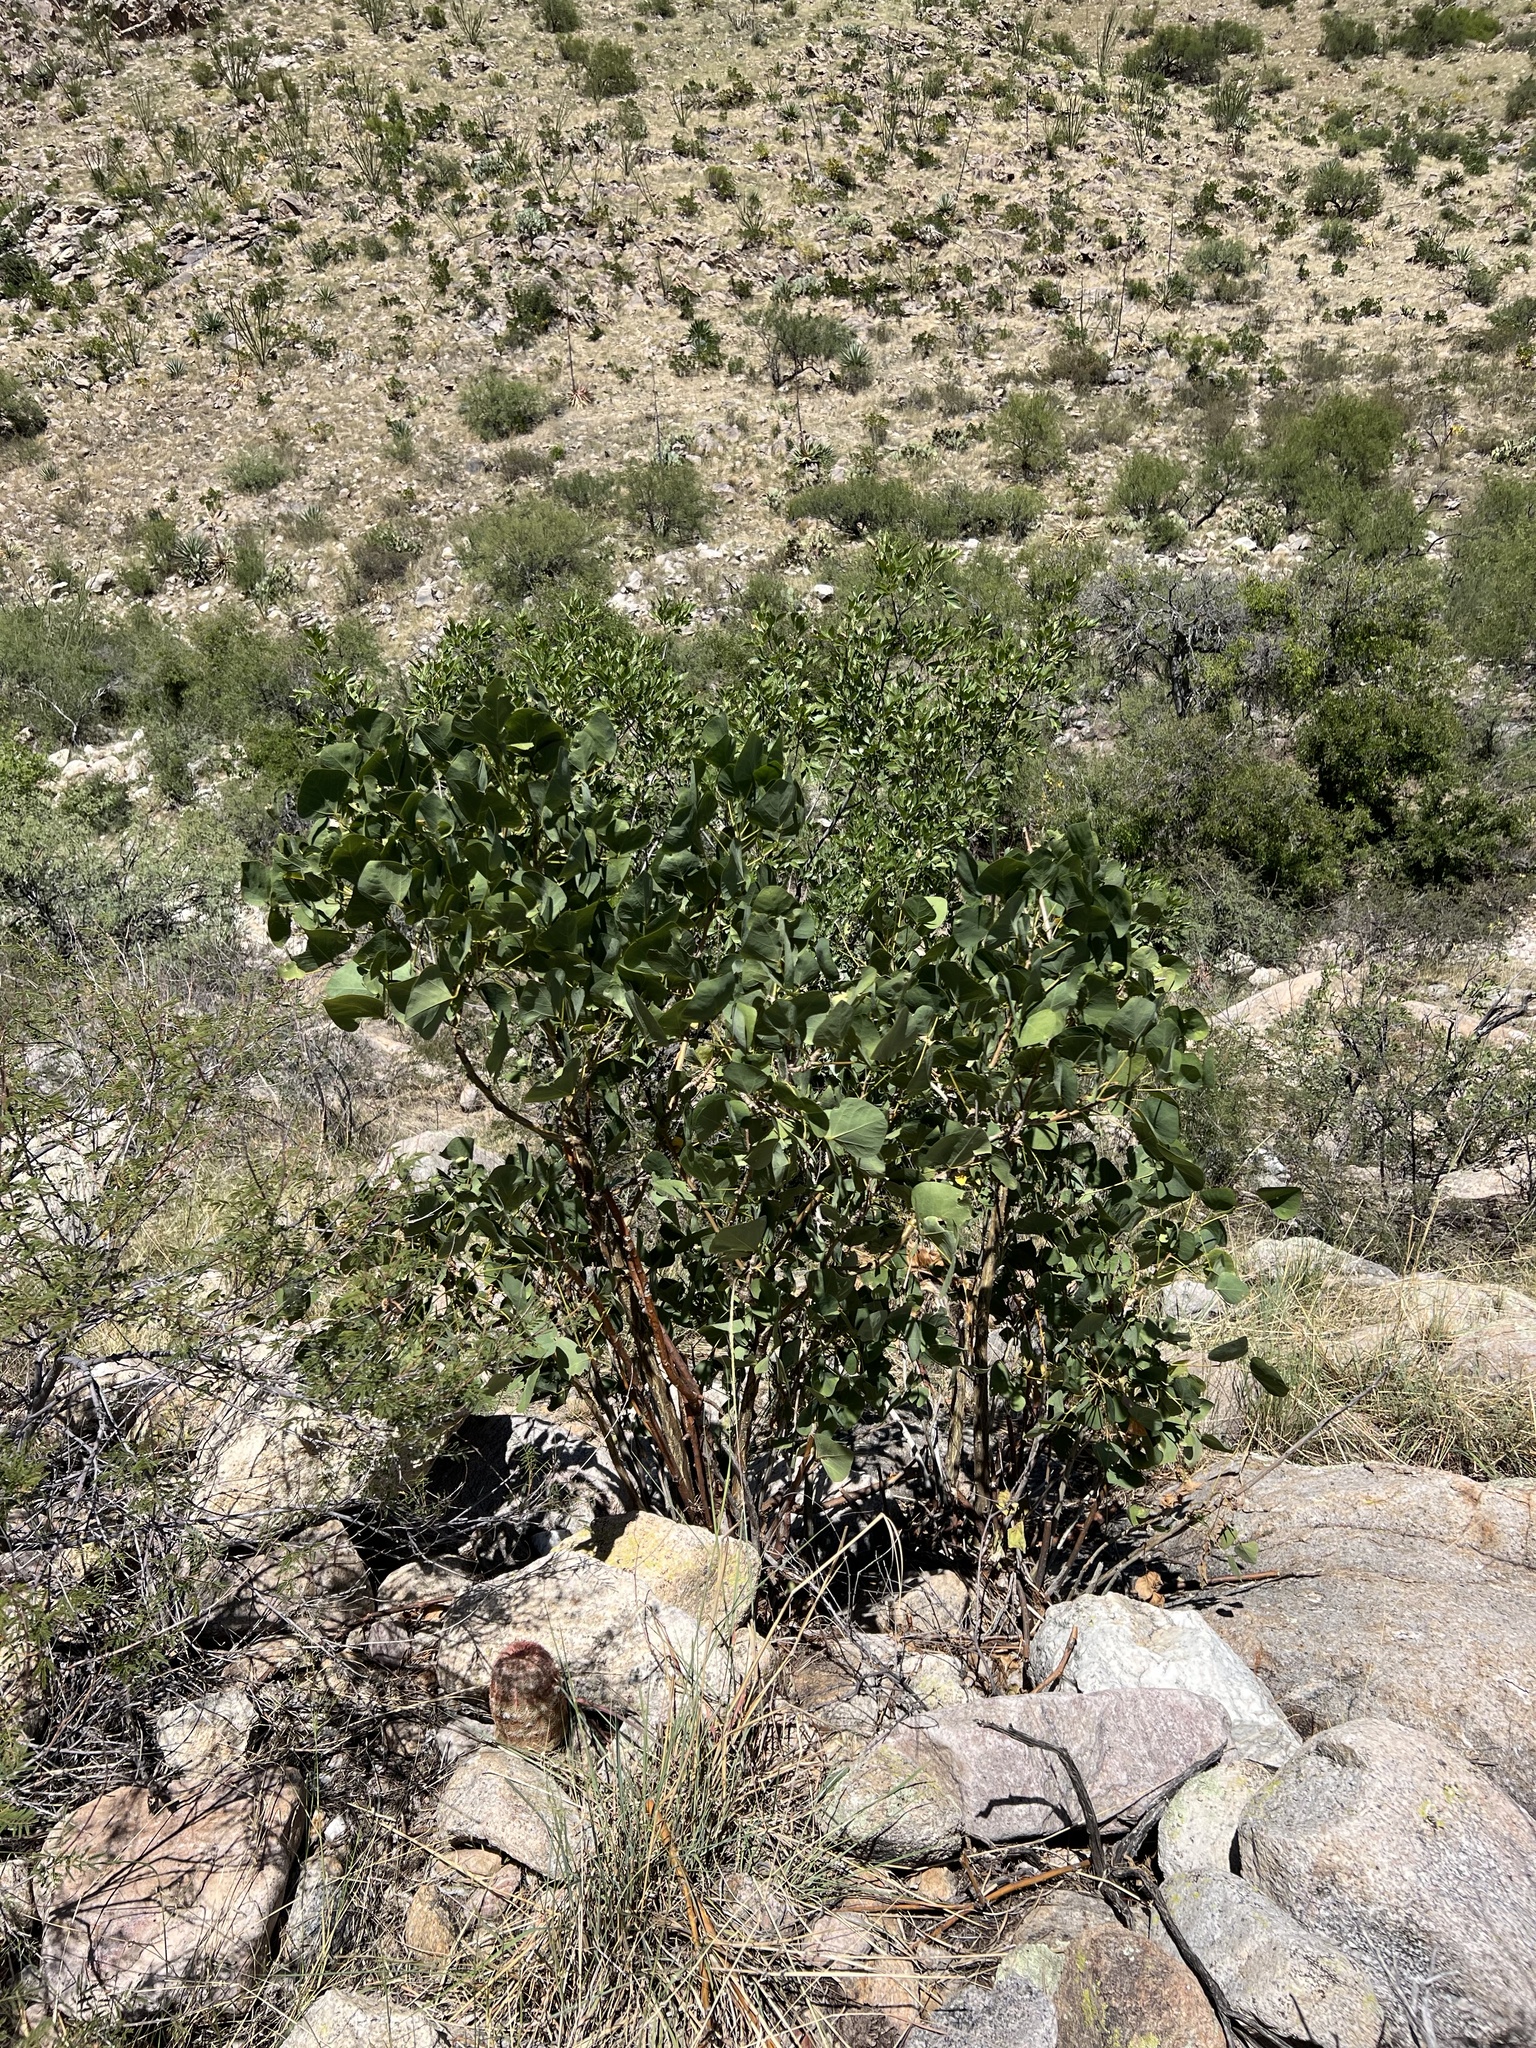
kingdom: Plantae
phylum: Tracheophyta
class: Magnoliopsida
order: Fabales
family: Fabaceae
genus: Erythrina
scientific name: Erythrina flabelliformis
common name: Chilicote
